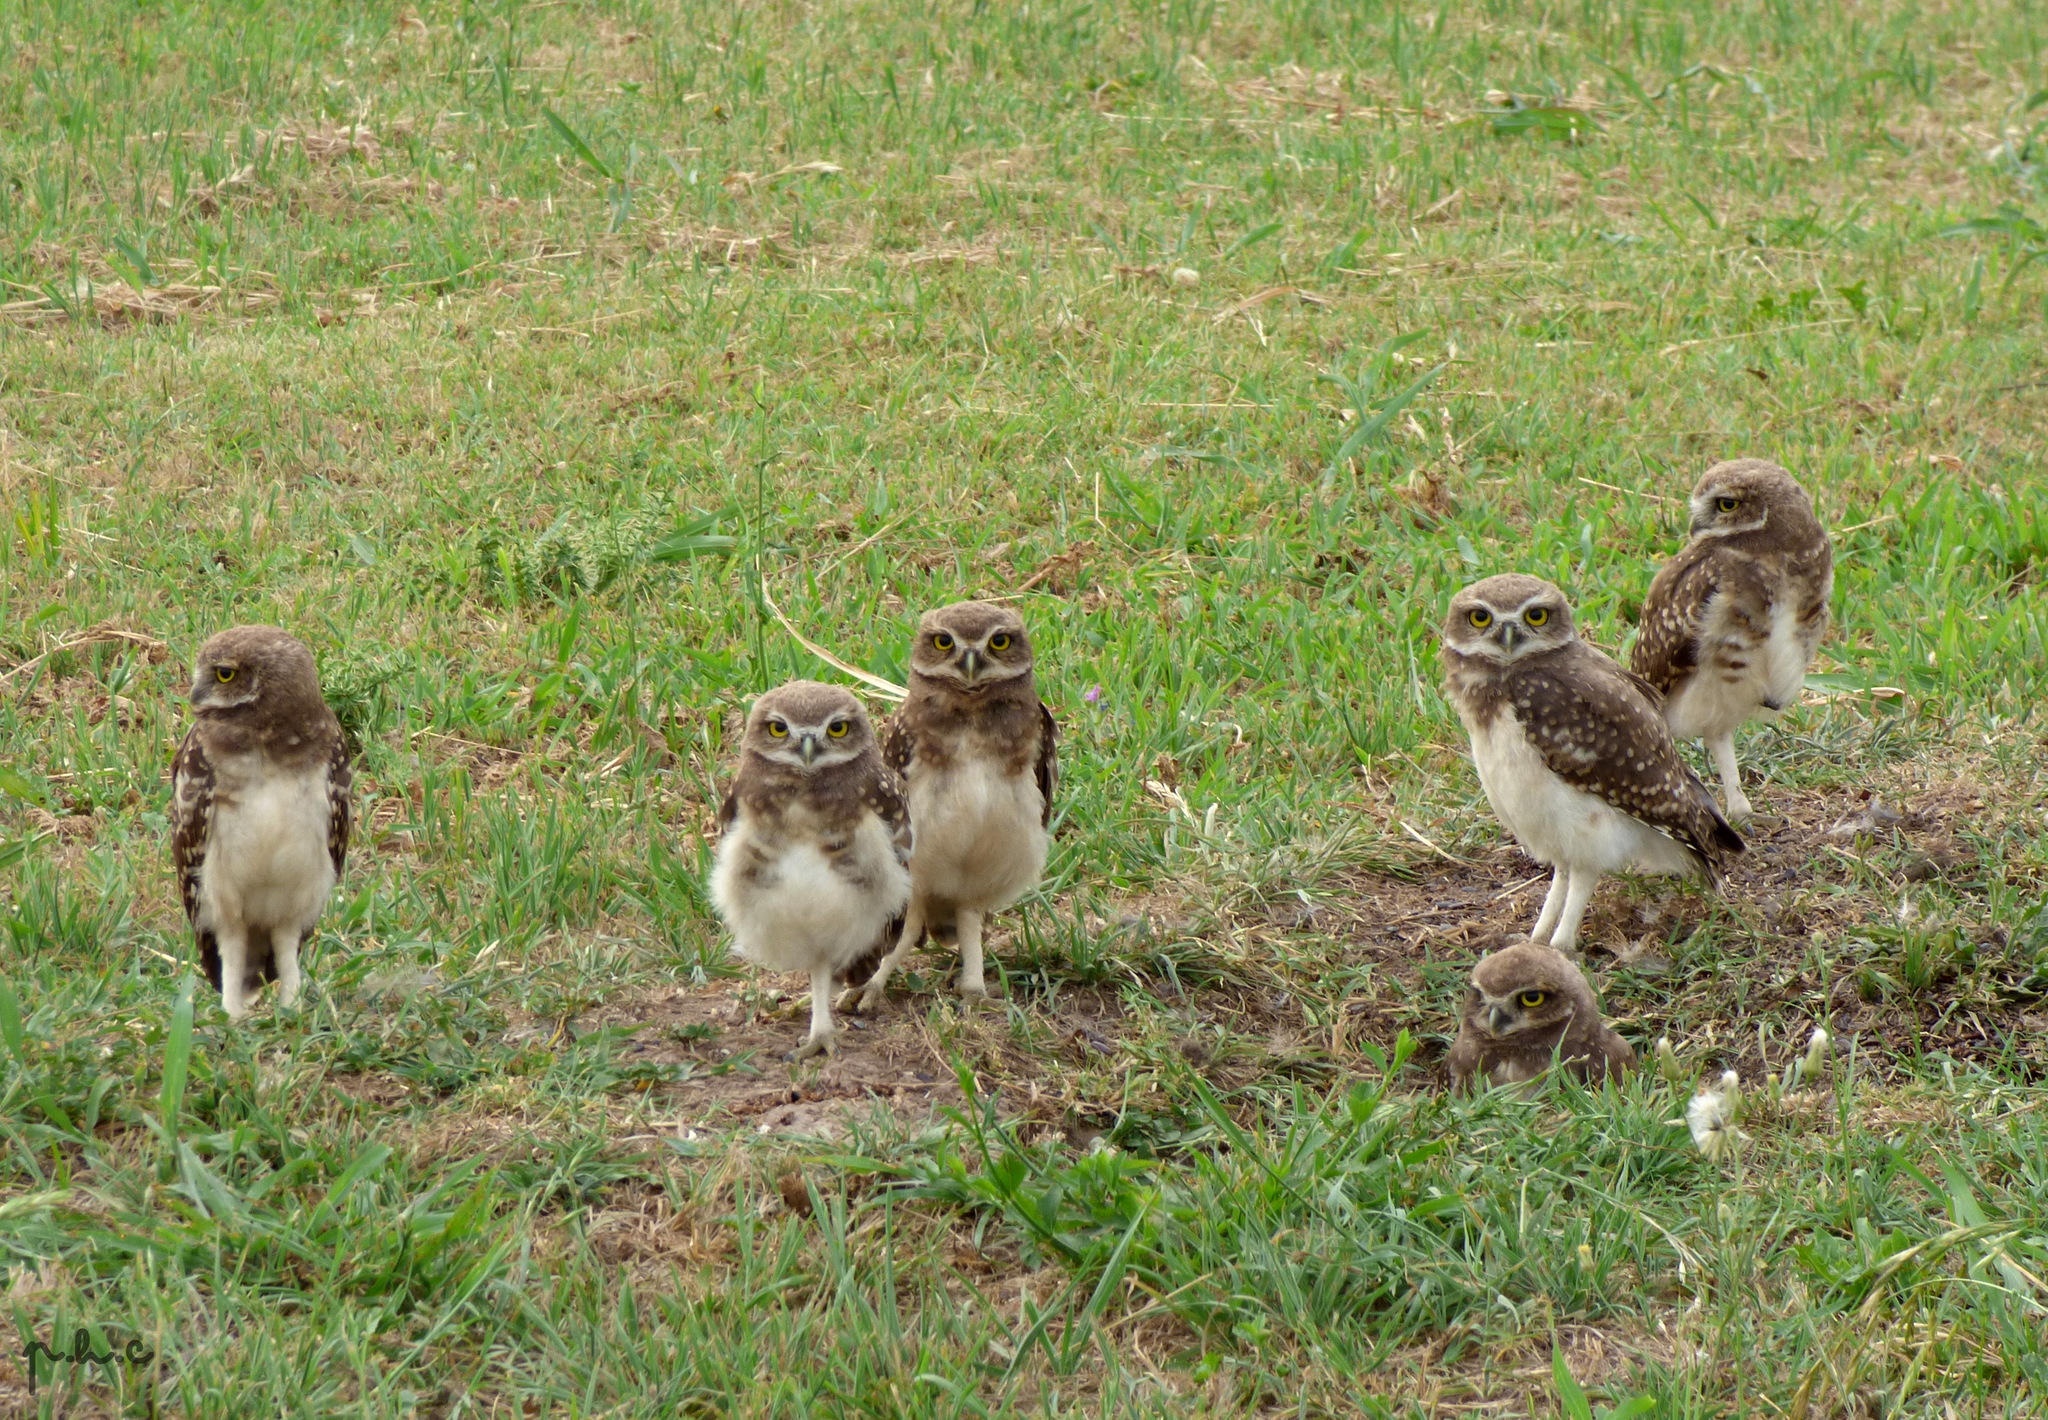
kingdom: Animalia
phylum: Chordata
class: Aves
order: Strigiformes
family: Strigidae
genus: Athene
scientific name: Athene cunicularia
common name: Burrowing owl
